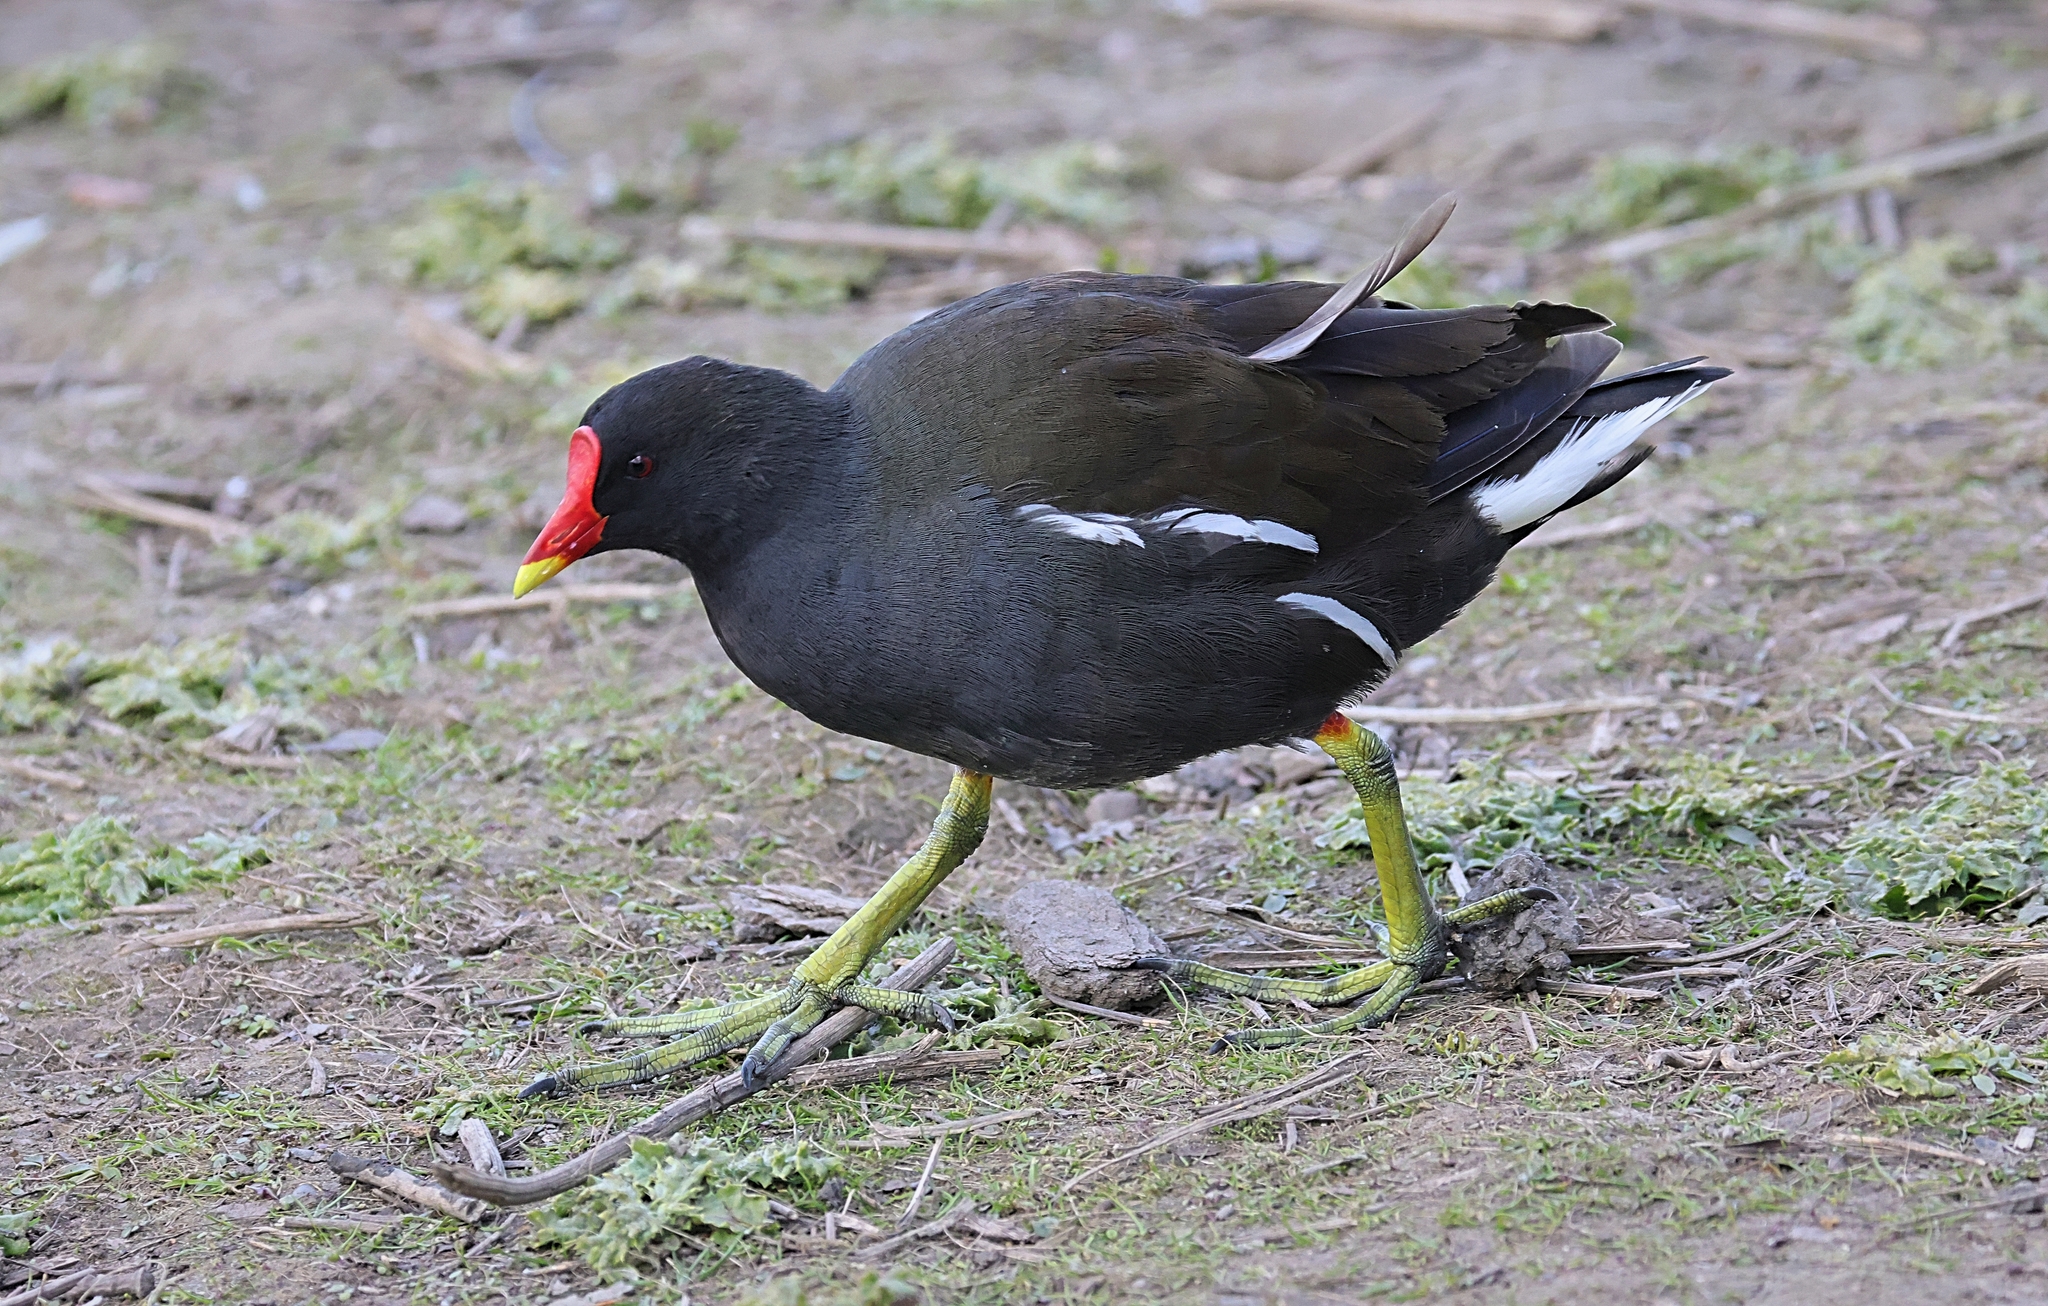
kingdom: Animalia
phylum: Chordata
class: Aves
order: Gruiformes
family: Rallidae
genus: Gallinula
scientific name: Gallinula chloropus
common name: Common moorhen
